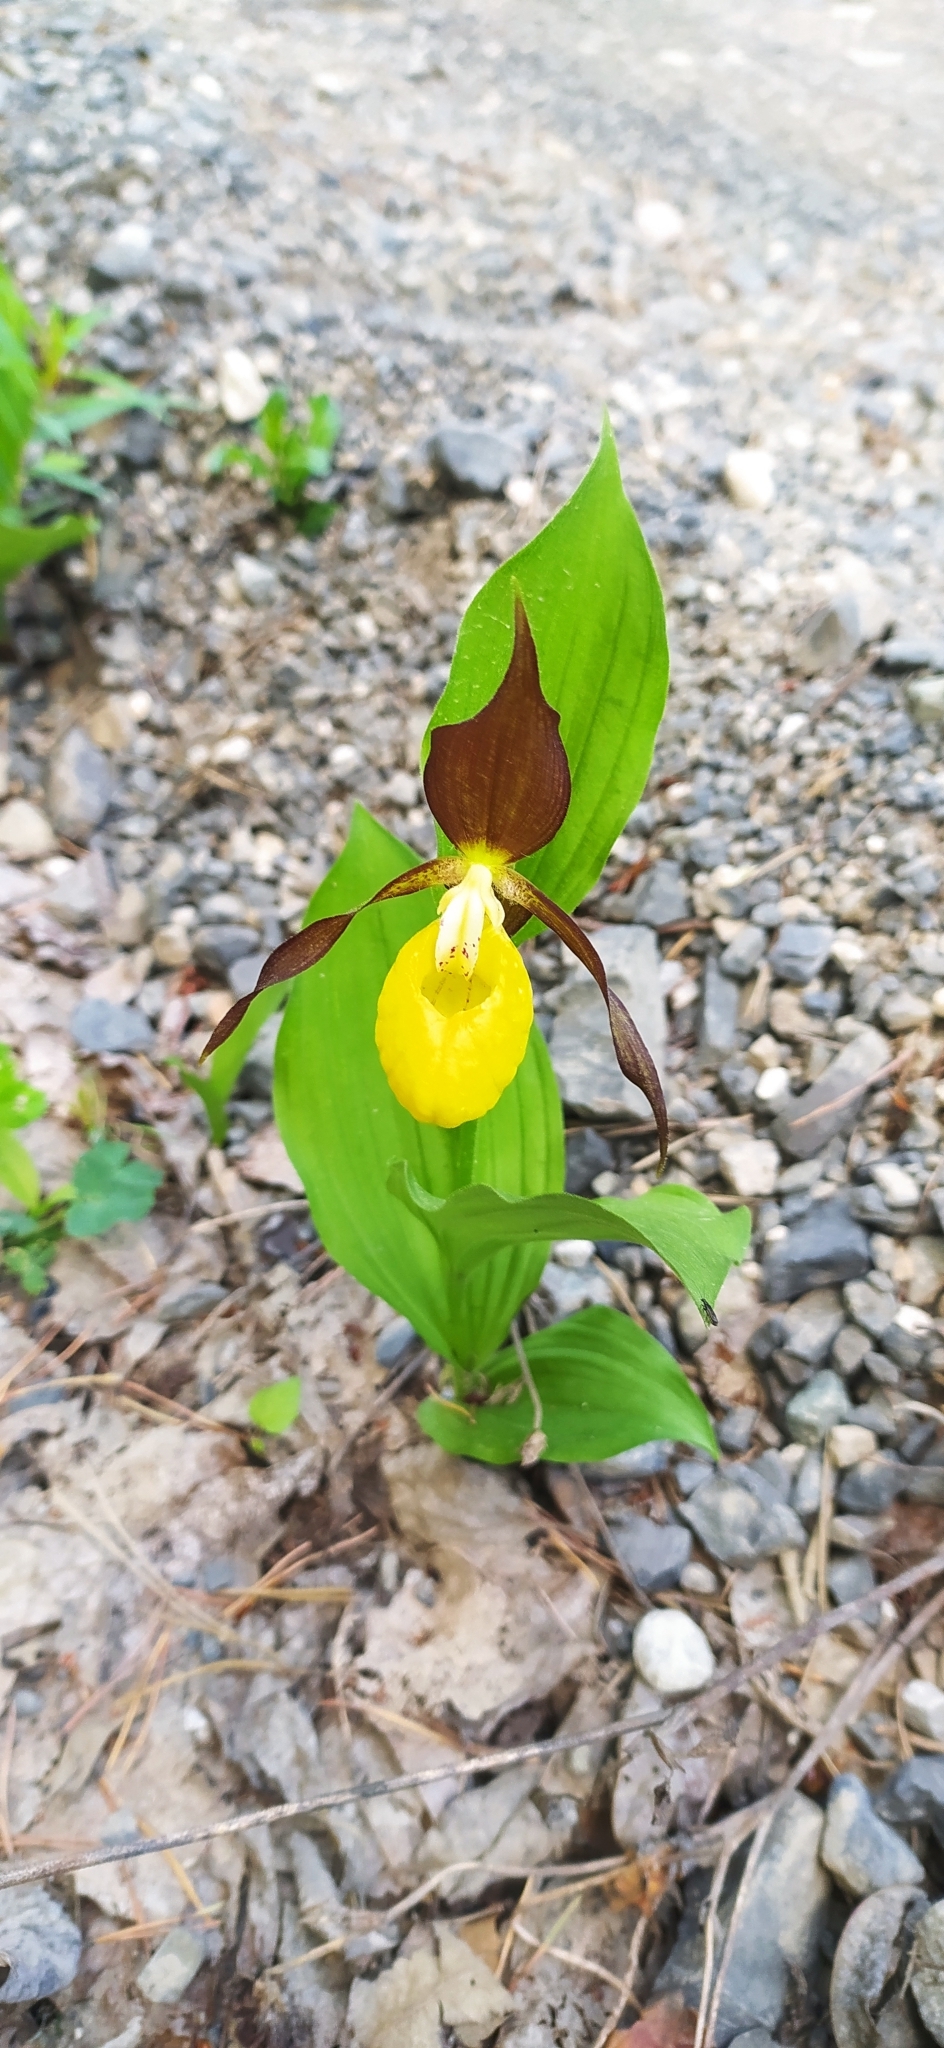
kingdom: Plantae
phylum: Tracheophyta
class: Liliopsida
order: Asparagales
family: Orchidaceae
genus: Cypripedium
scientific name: Cypripedium calceolus
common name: Lady's-slipper
